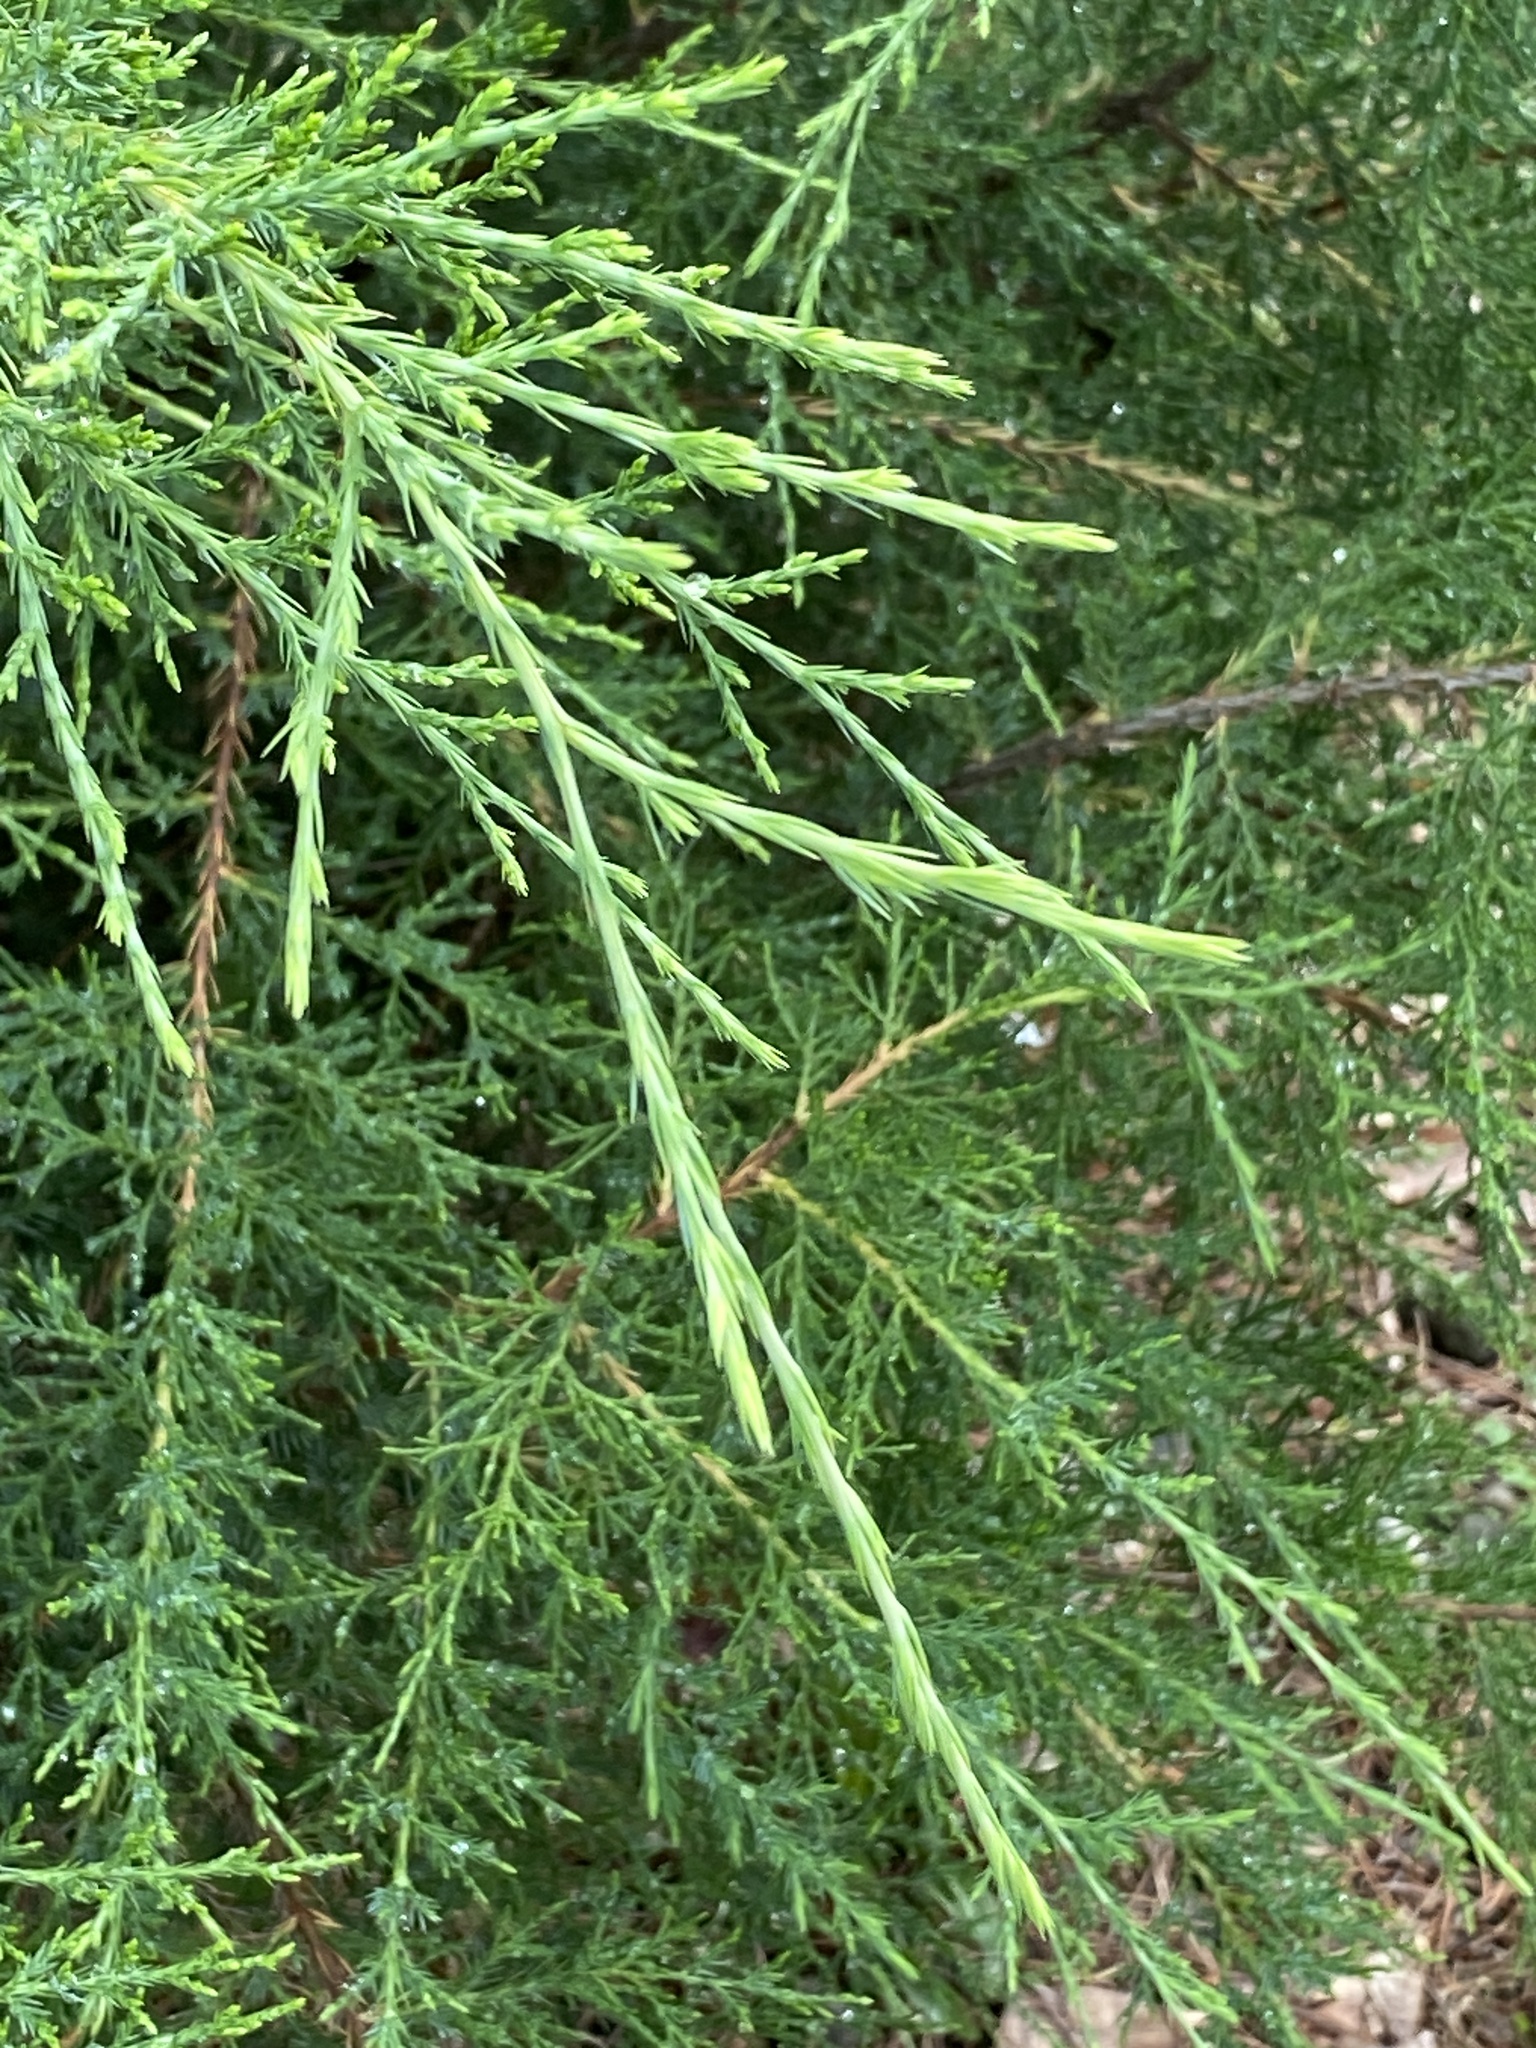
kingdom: Plantae
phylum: Tracheophyta
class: Pinopsida
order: Pinales
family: Cupressaceae
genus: Juniperus
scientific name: Juniperus virginiana
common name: Red juniper
